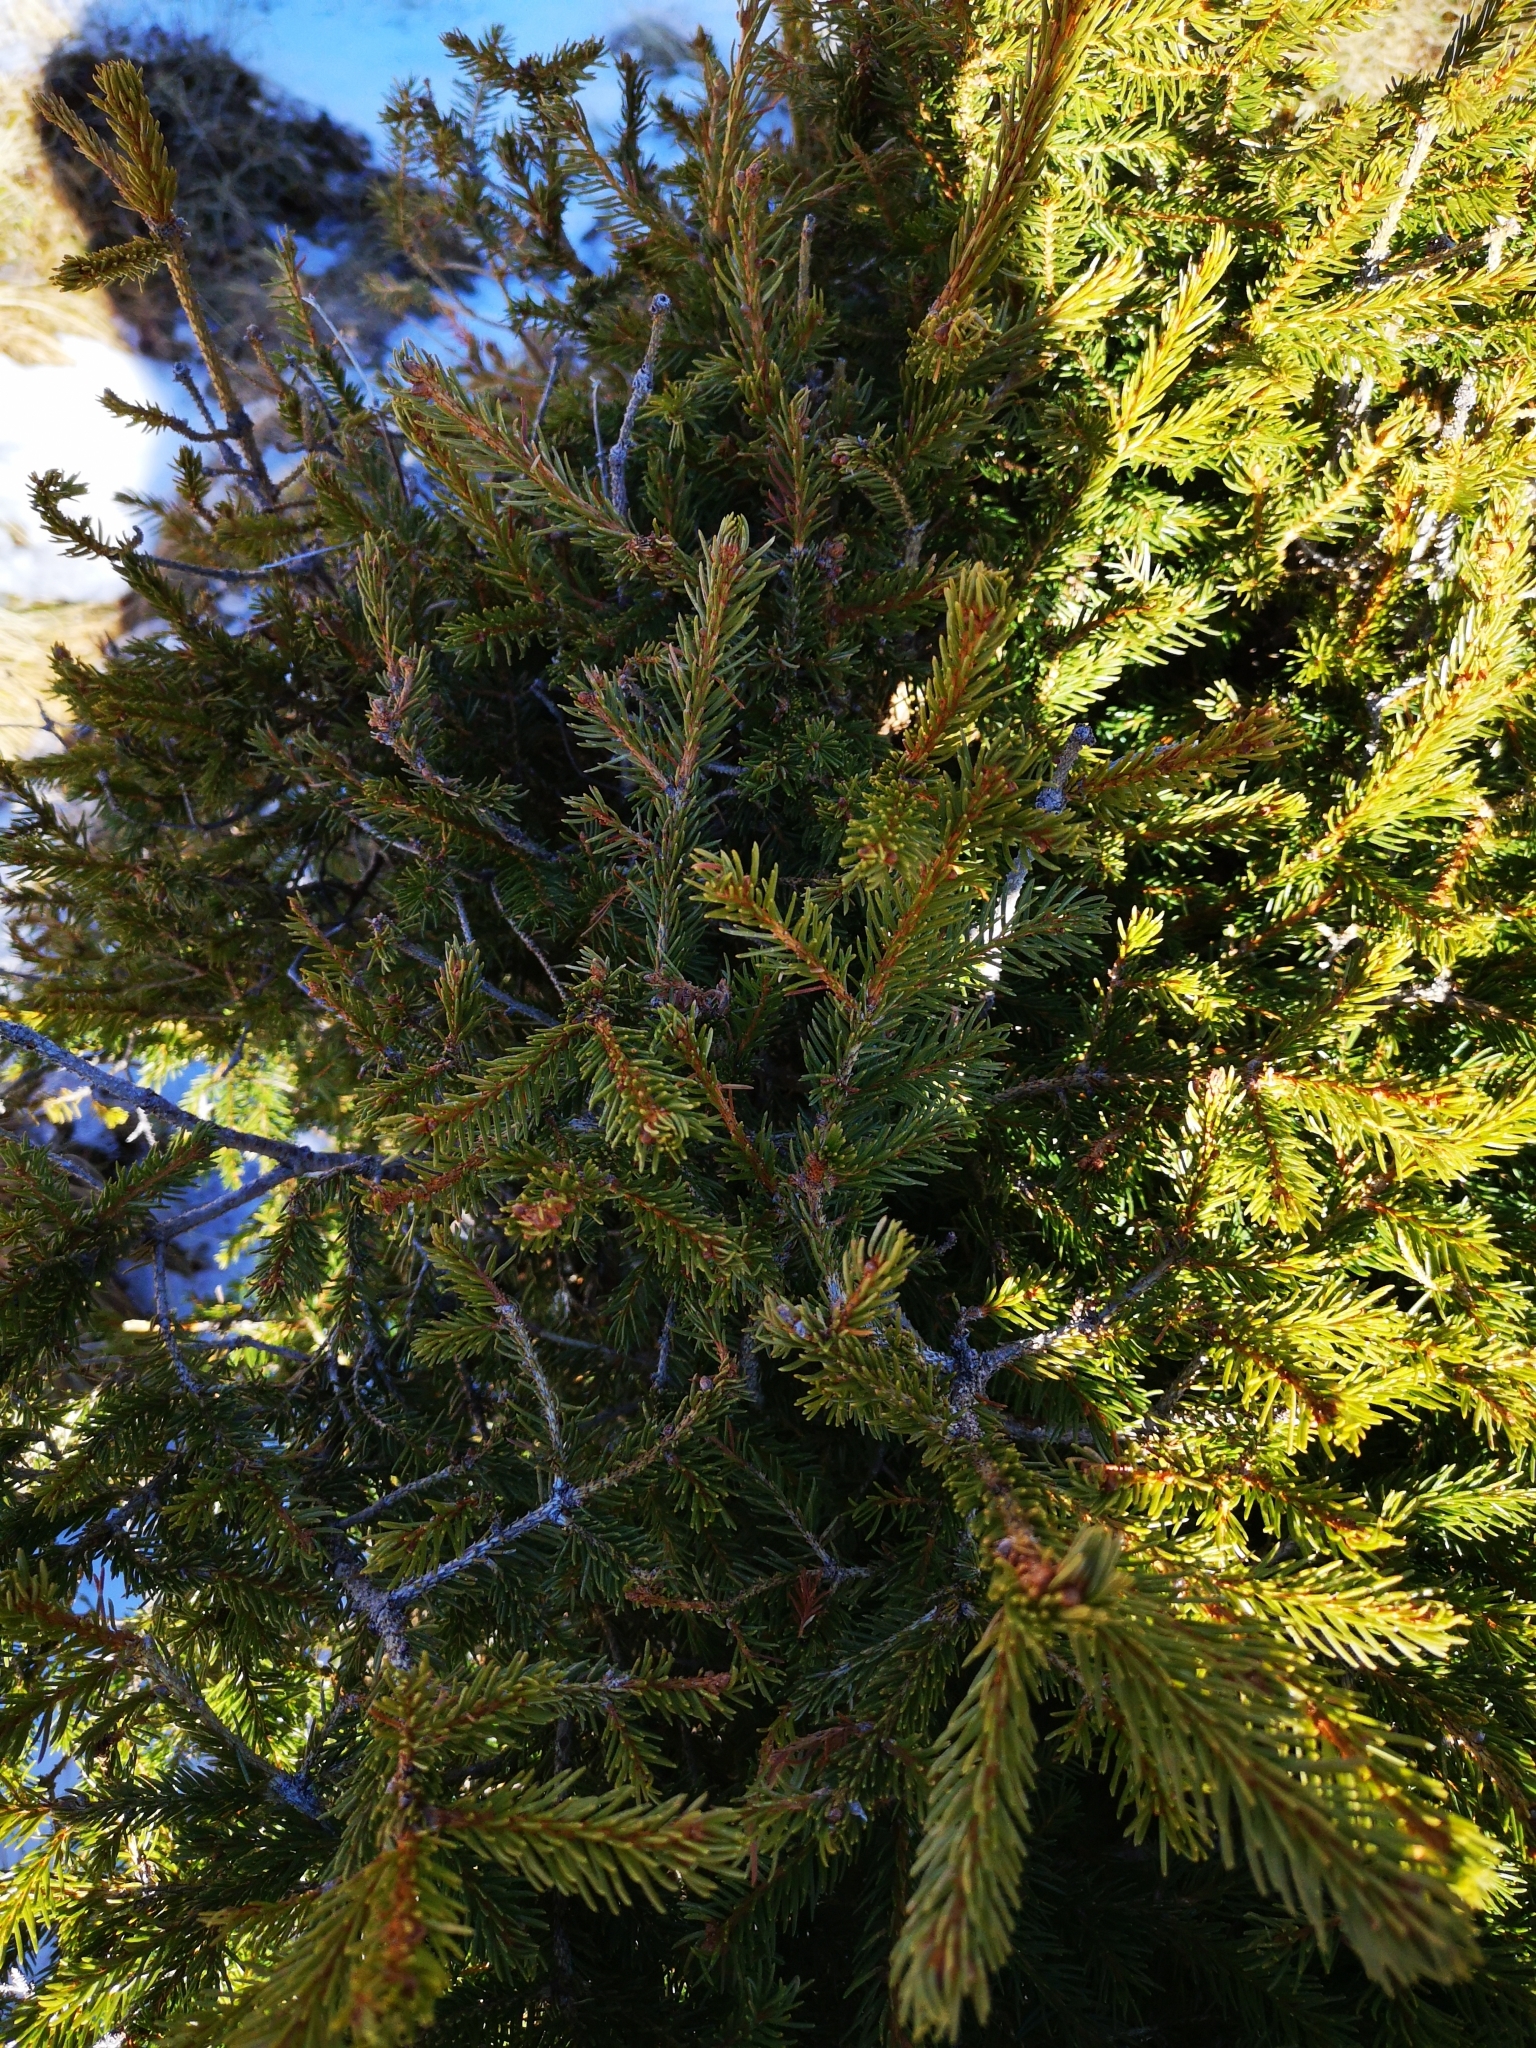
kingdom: Plantae
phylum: Tracheophyta
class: Pinopsida
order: Pinales
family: Pinaceae
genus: Picea
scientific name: Picea abies
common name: Norway spruce
